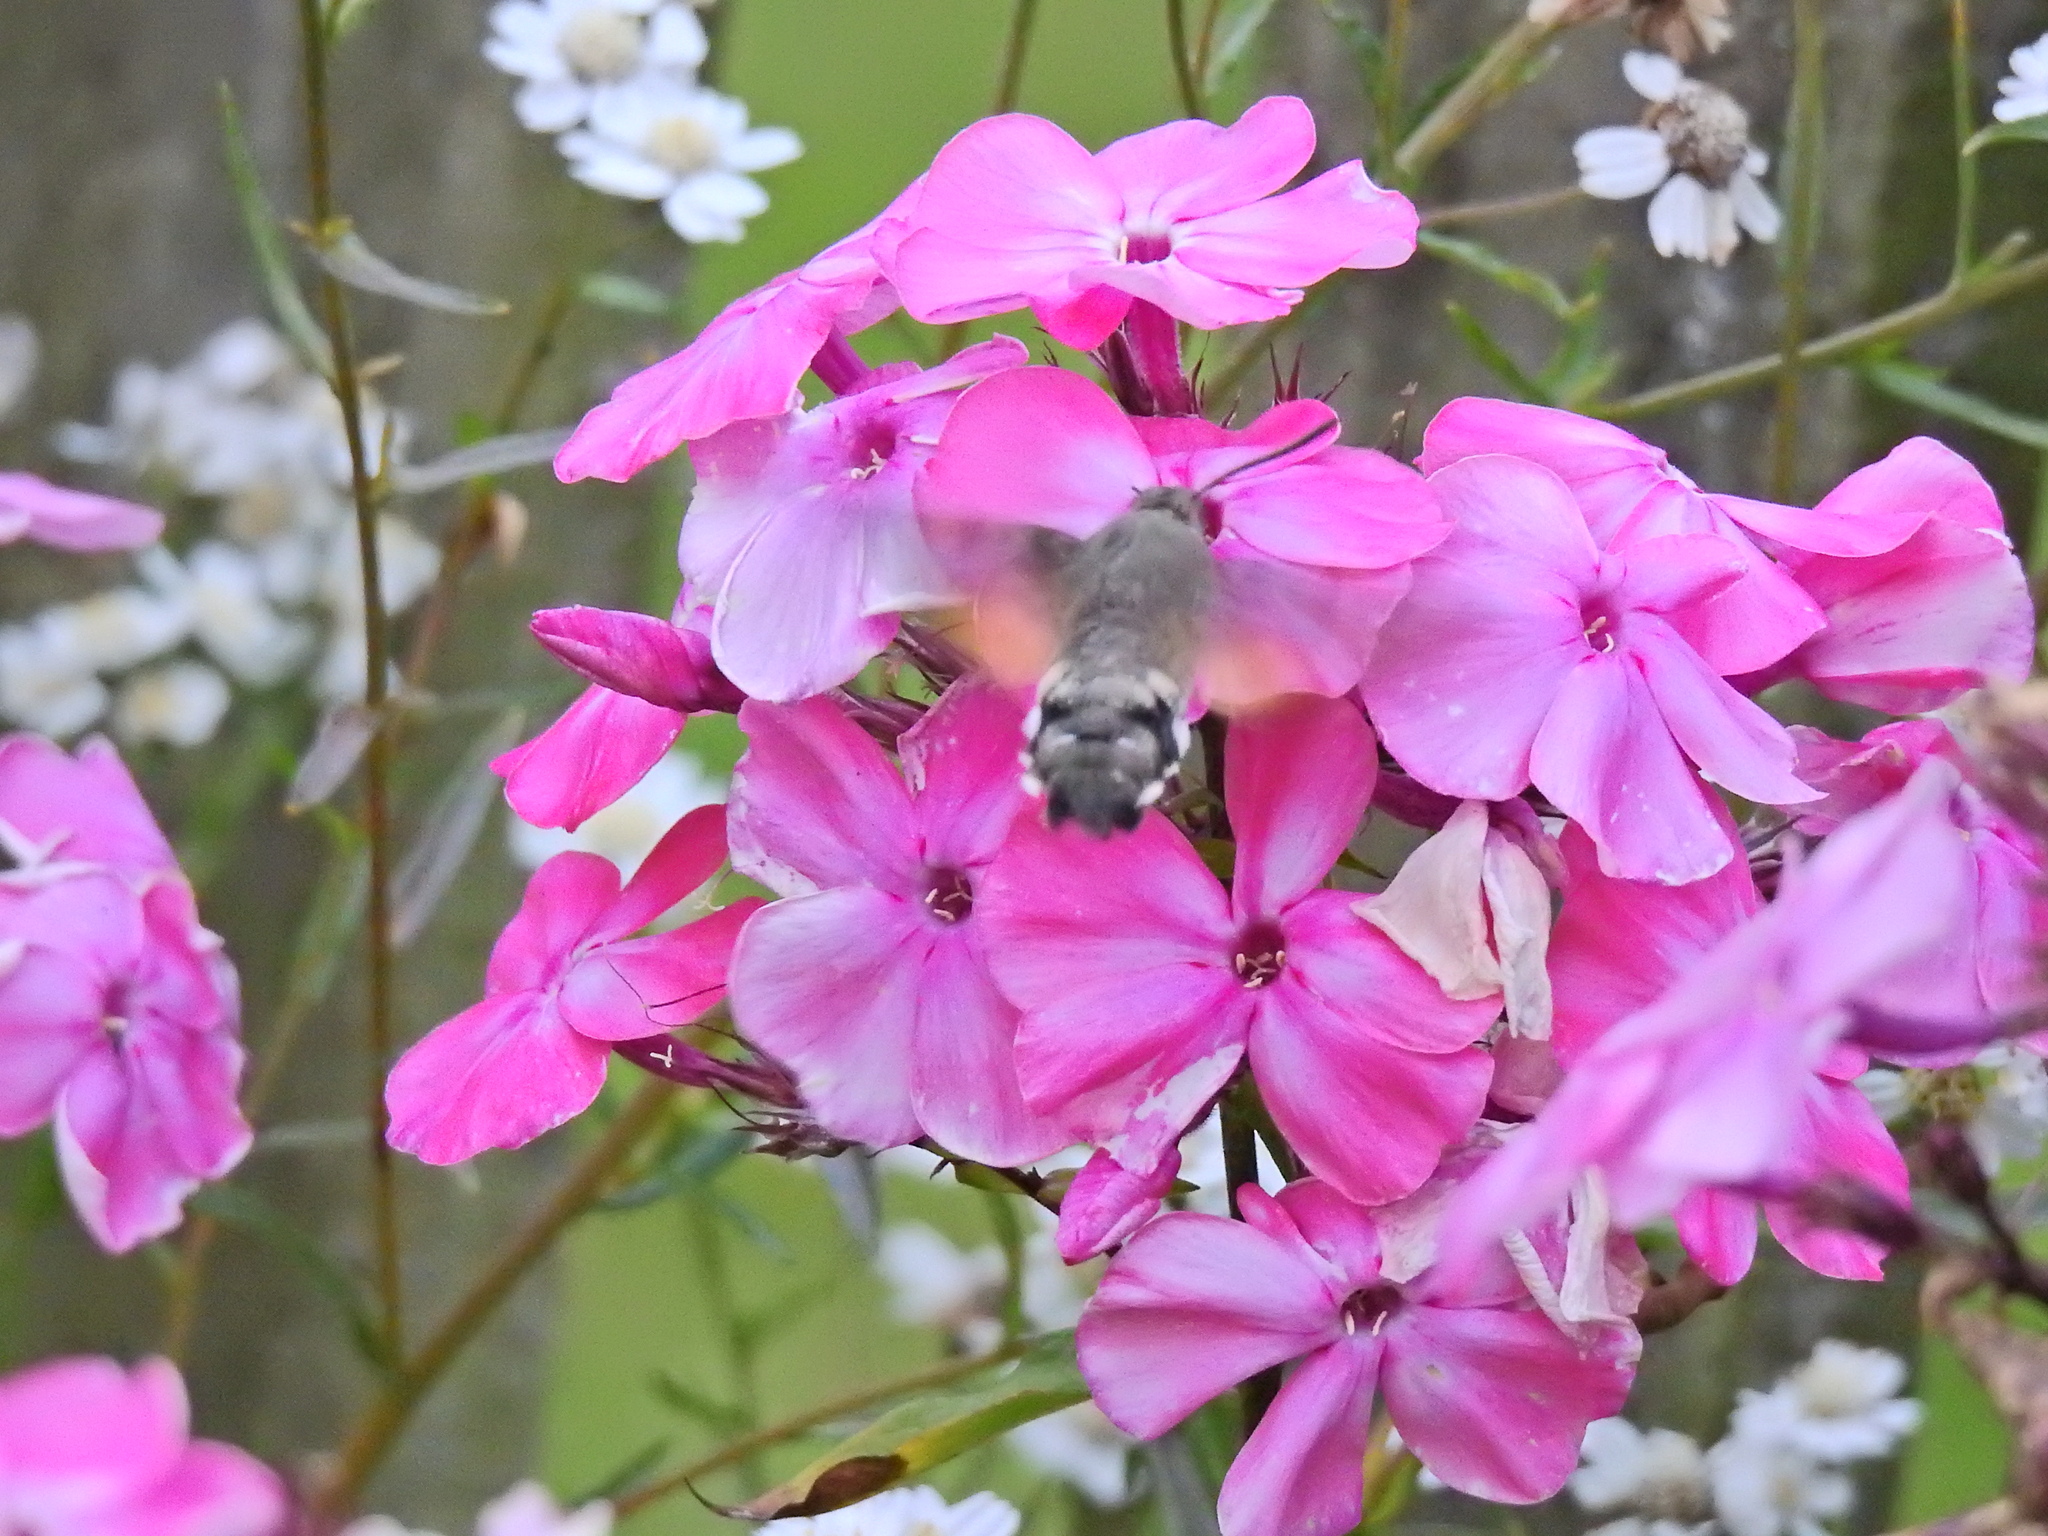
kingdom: Animalia
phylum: Arthropoda
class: Insecta
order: Lepidoptera
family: Sphingidae
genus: Macroglossum
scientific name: Macroglossum stellatarum
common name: Humming-bird hawk-moth
